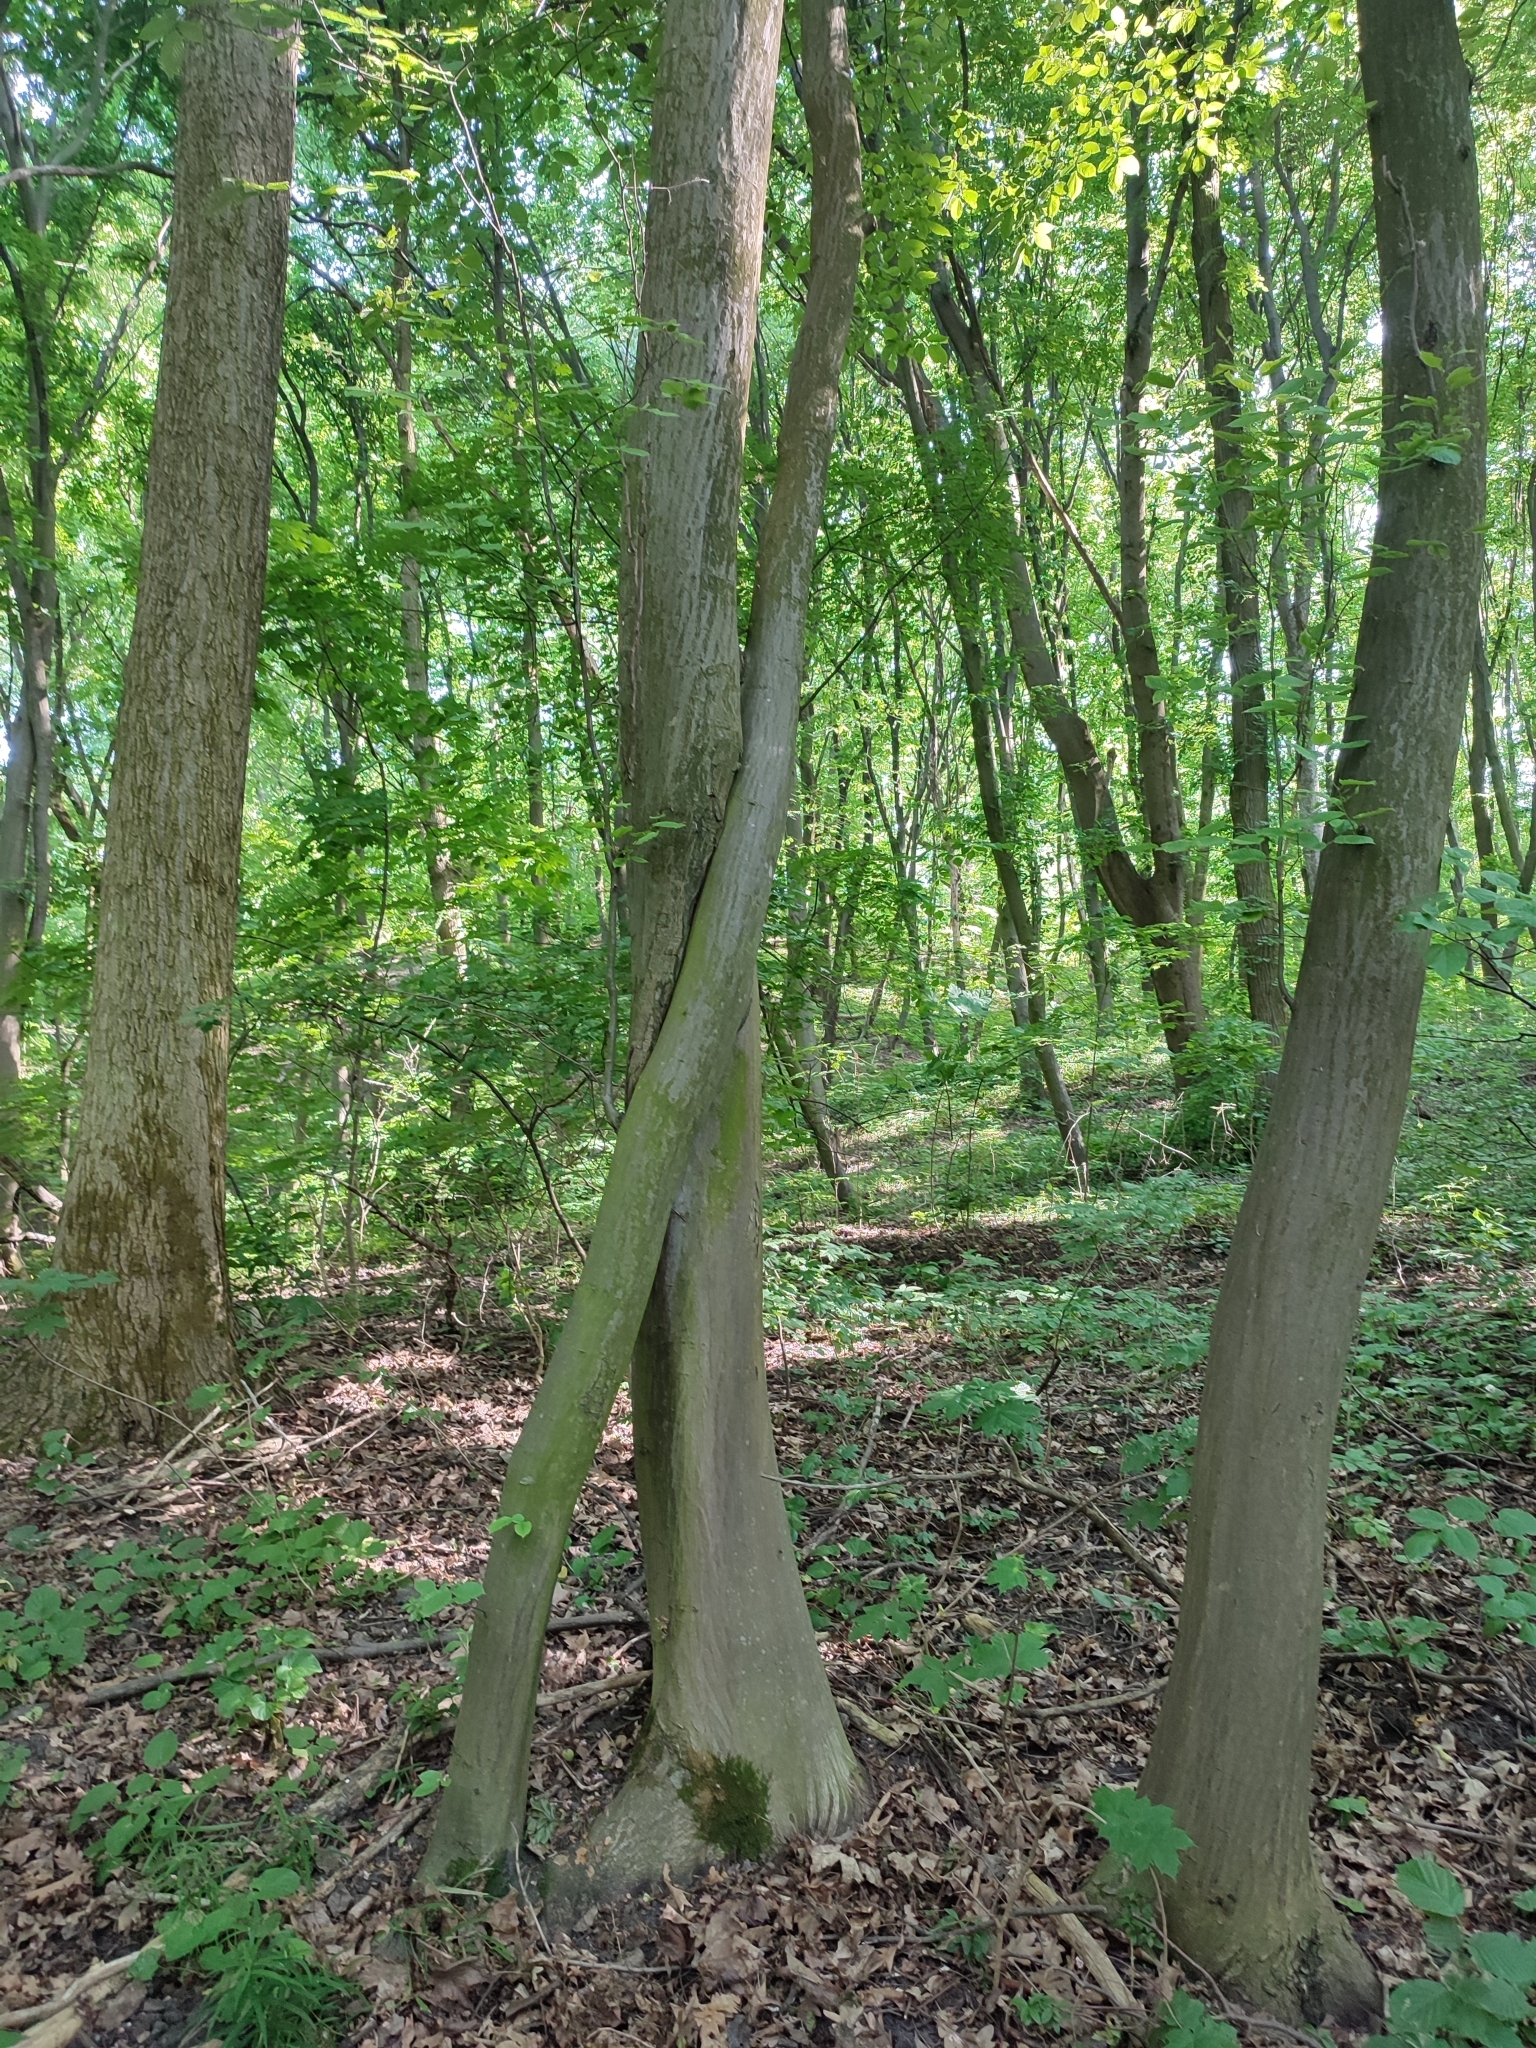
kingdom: Plantae
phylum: Tracheophyta
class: Magnoliopsida
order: Fagales
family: Betulaceae
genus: Carpinus
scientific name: Carpinus betulus
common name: Hornbeam
